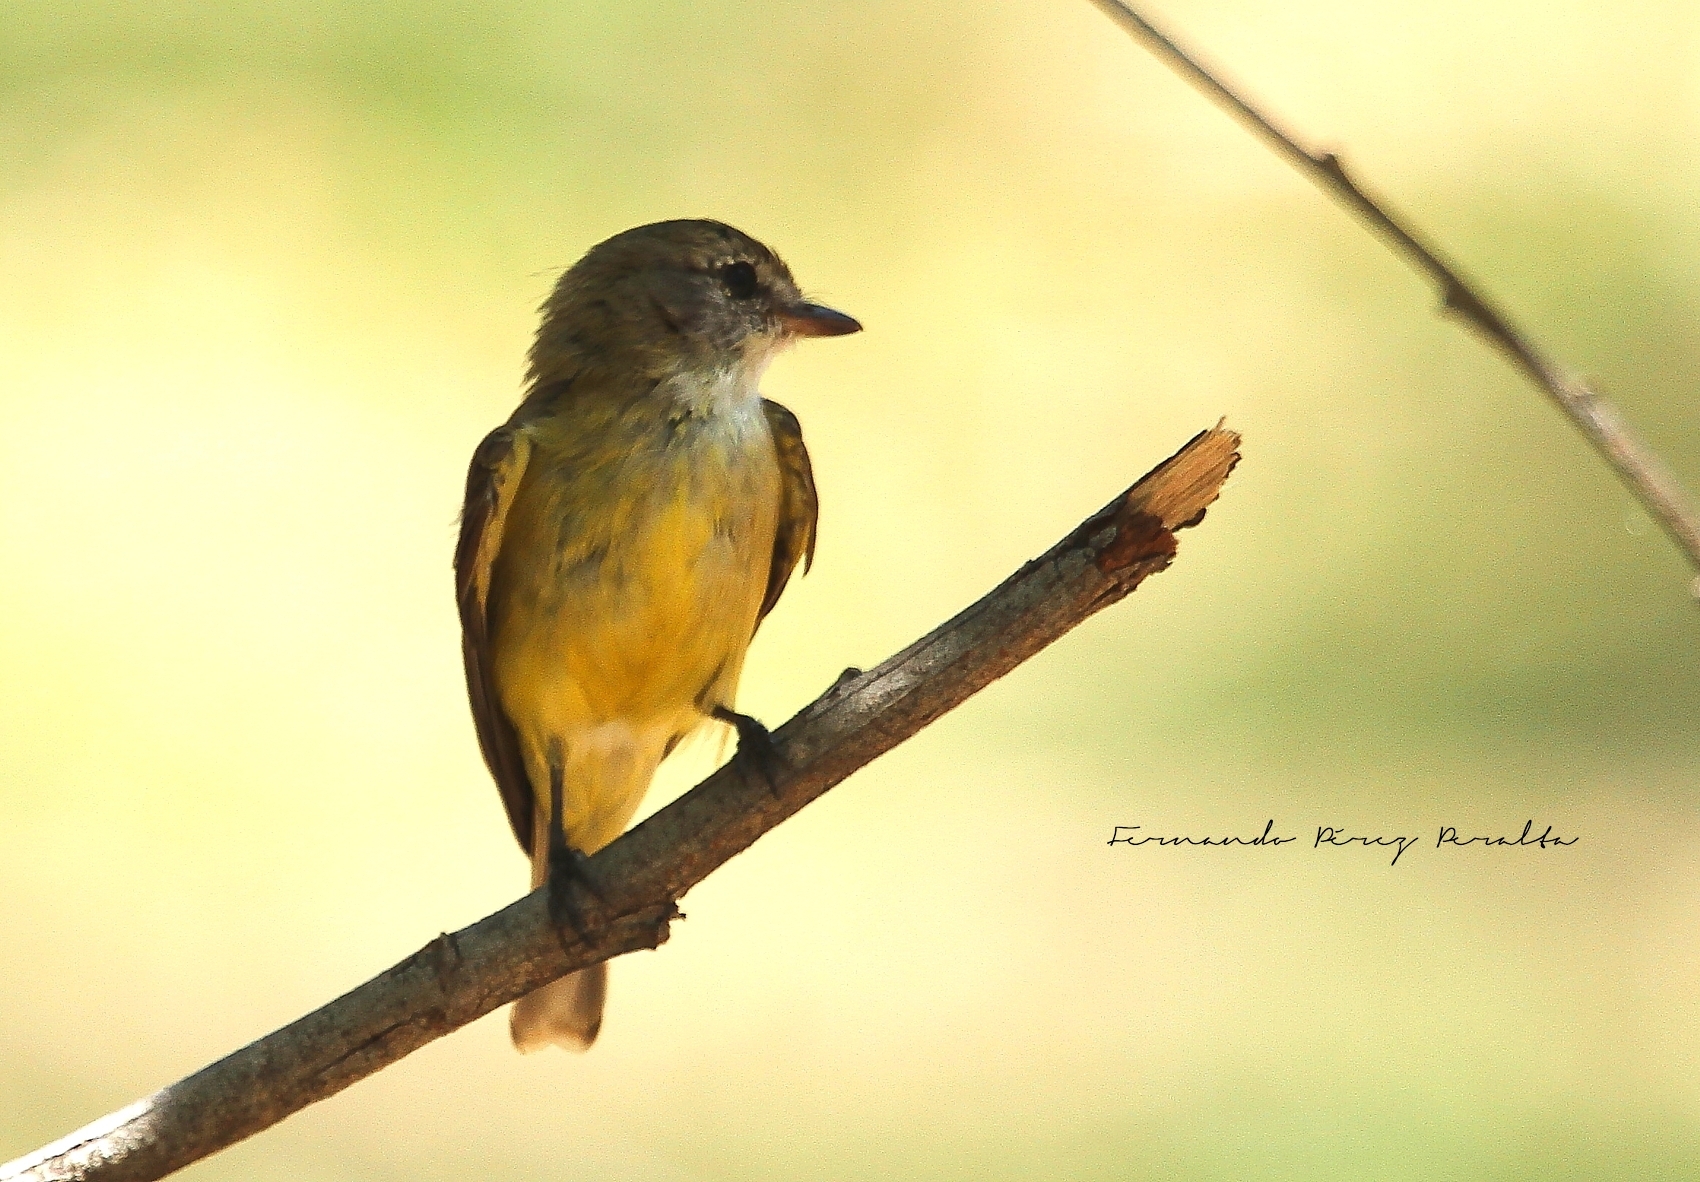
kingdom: Animalia
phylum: Chordata
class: Aves
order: Passeriformes
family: Petroicidae
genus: Microeca
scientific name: Microeca flavigaster
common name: Lemon-bellied flyrobin
